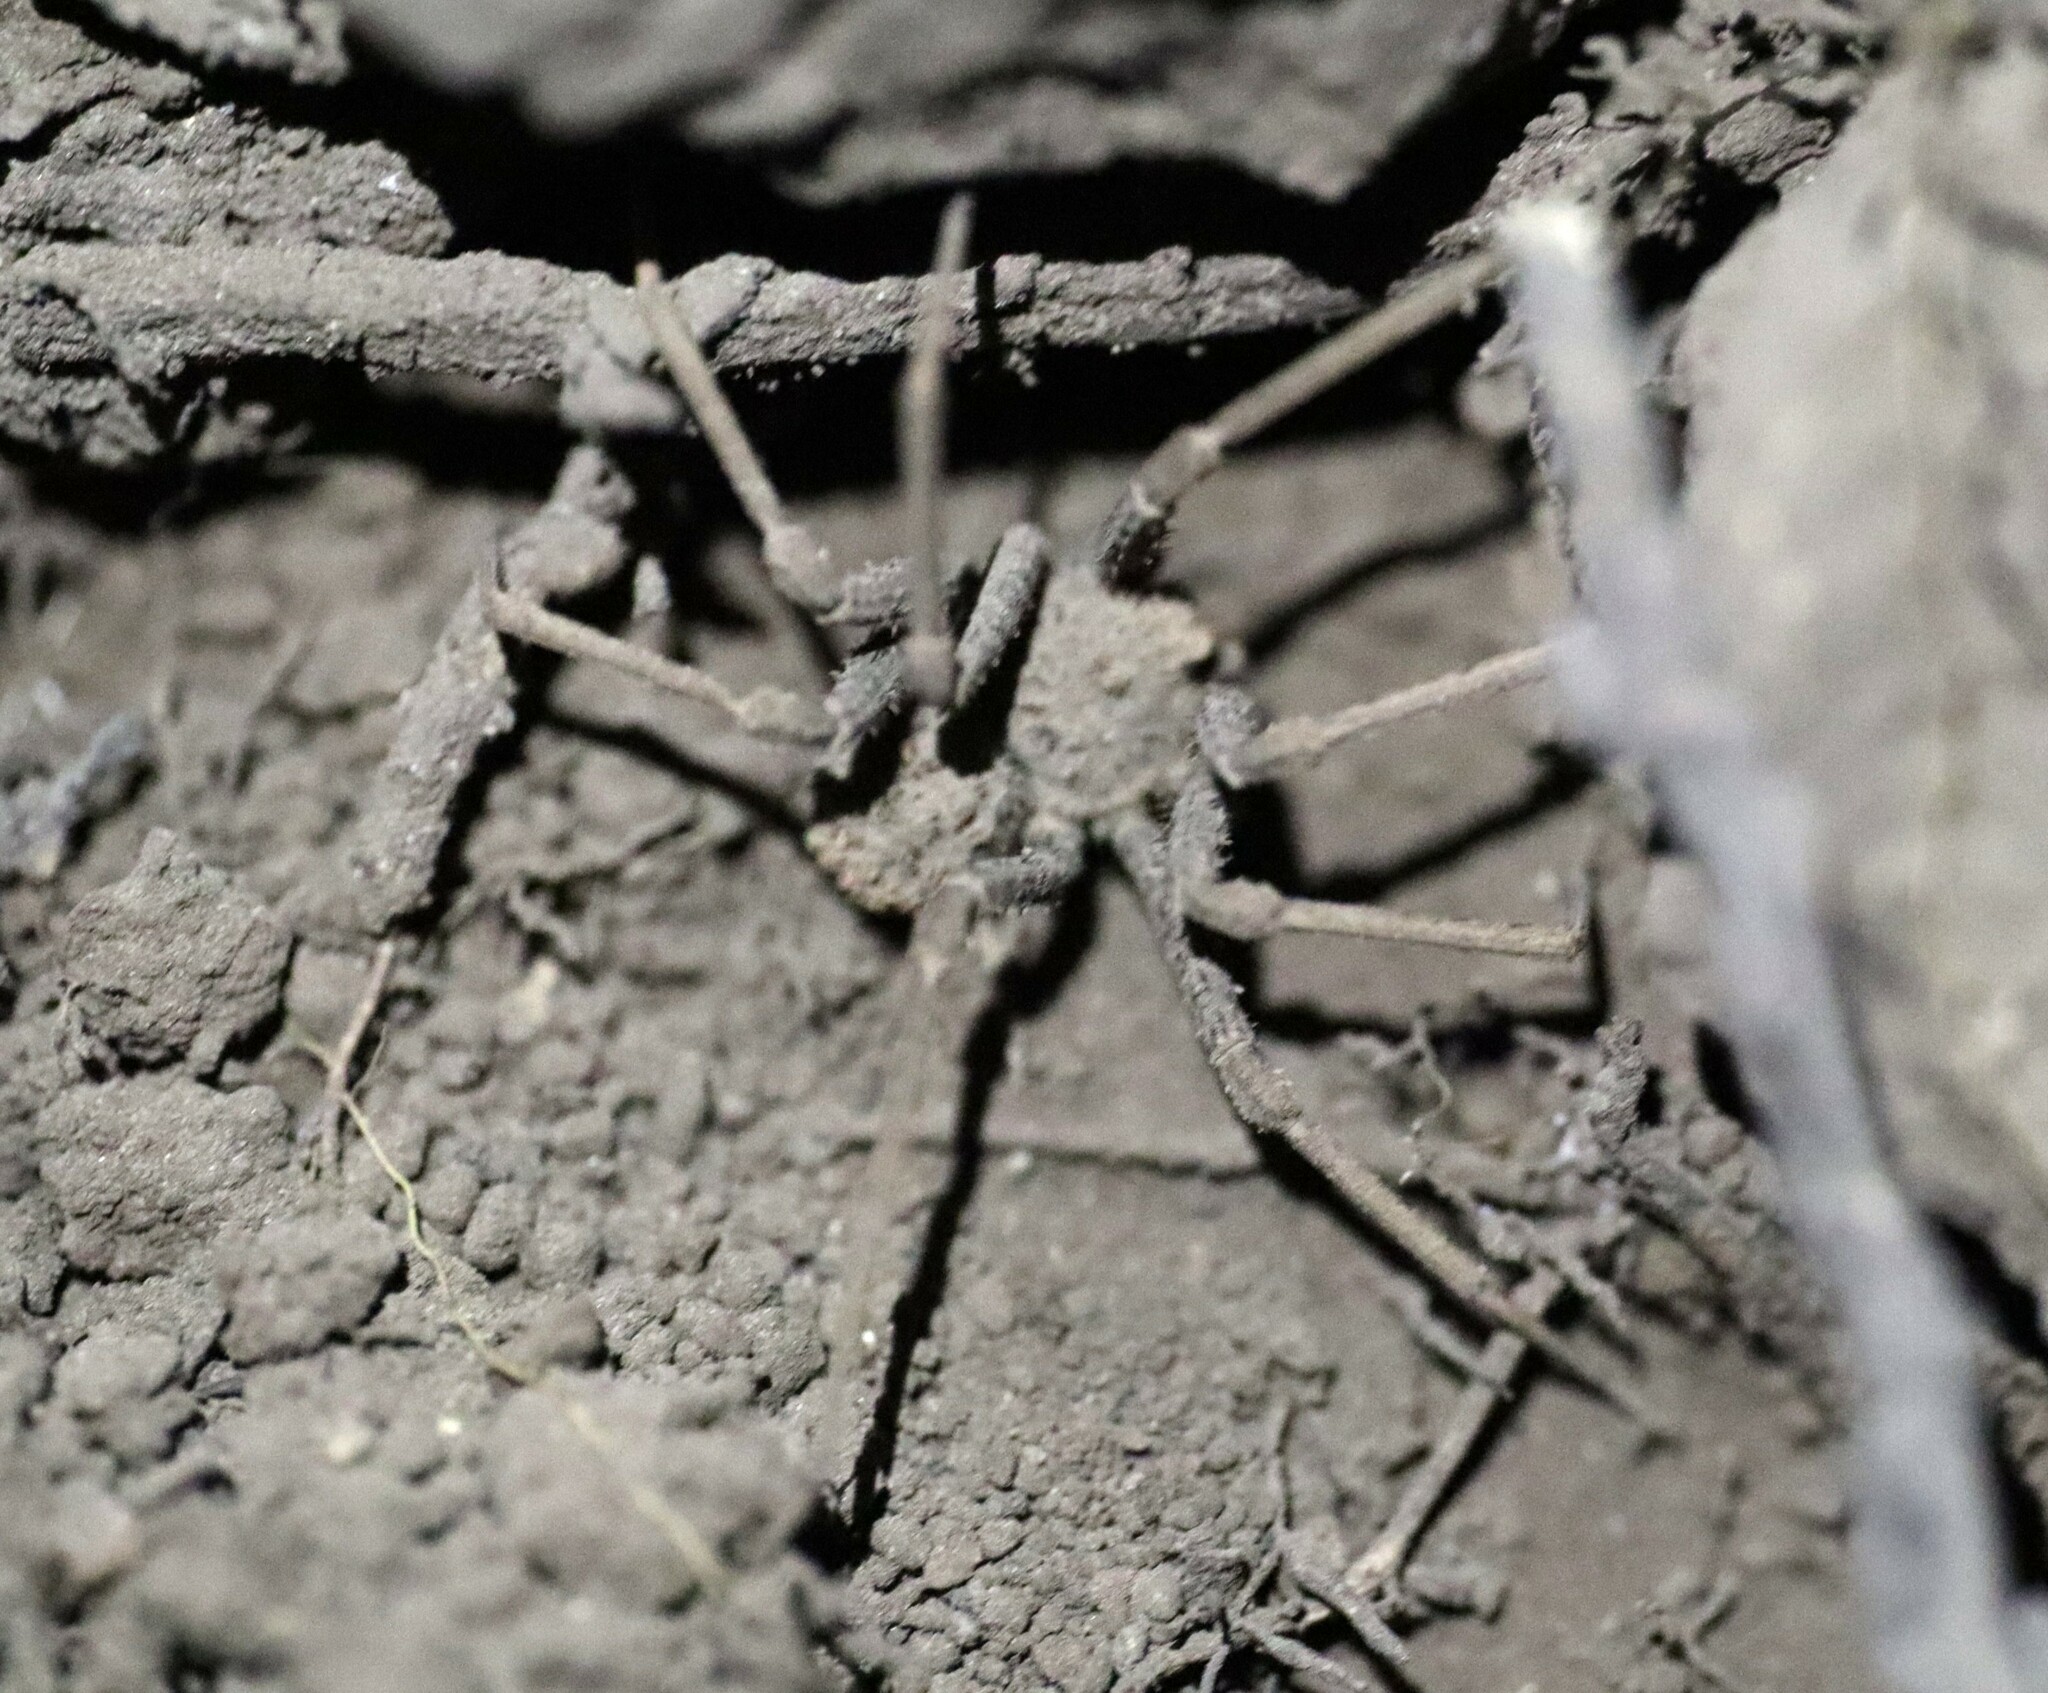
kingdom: Animalia
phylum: Arthropoda
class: Arachnida
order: Araneae
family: Sicariidae
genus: Sicarius
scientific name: Sicarius fumosus
